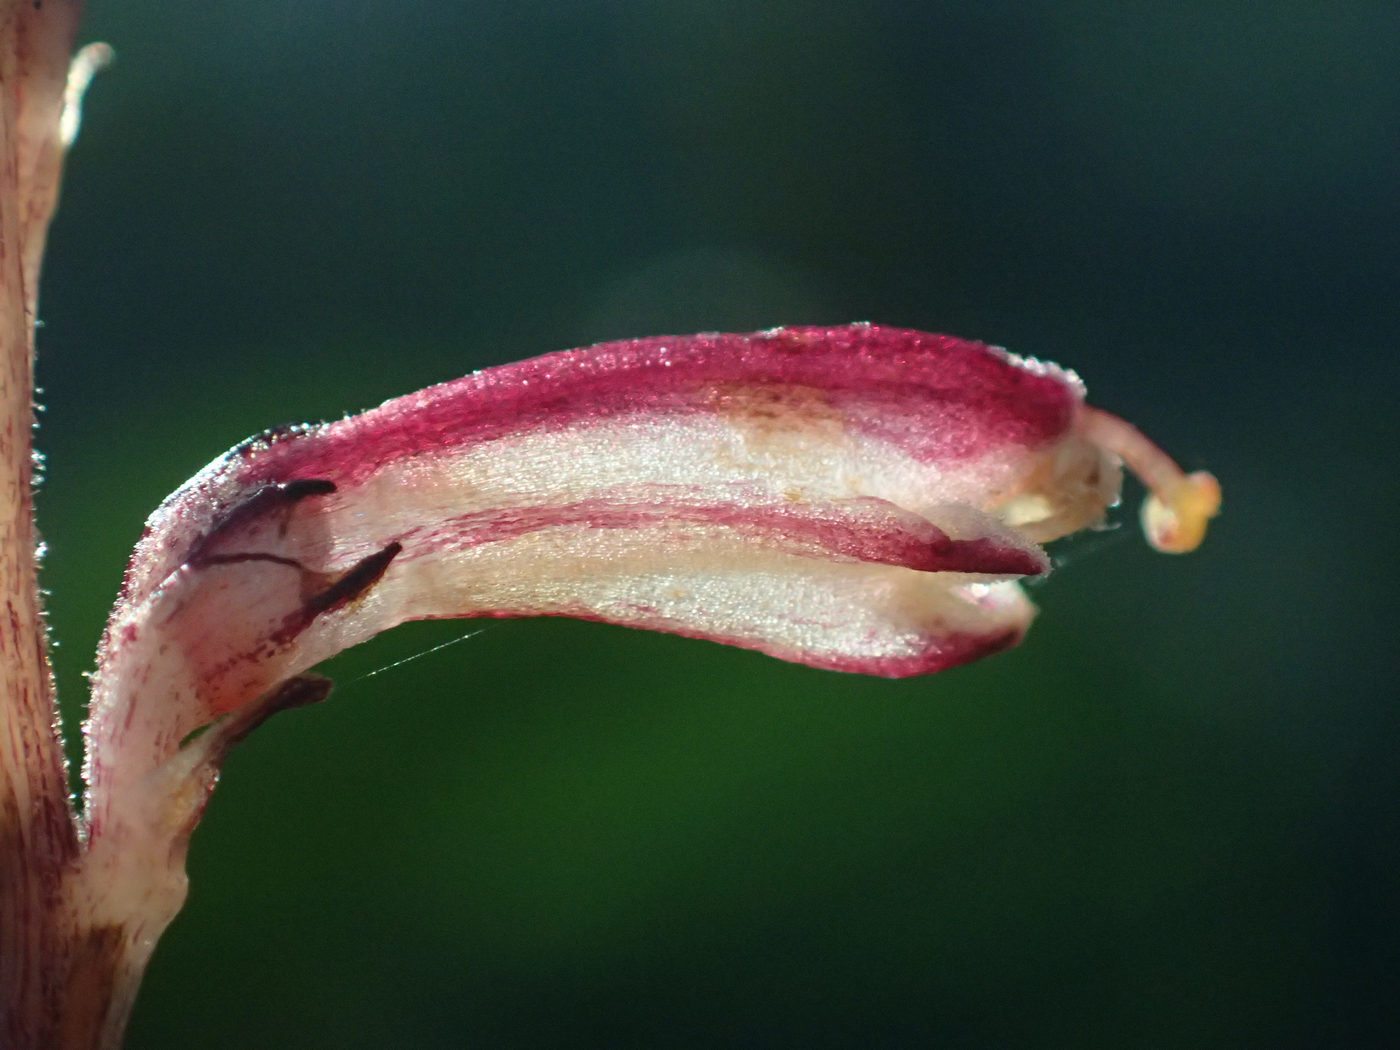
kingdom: Plantae
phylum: Tracheophyta
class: Magnoliopsida
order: Lamiales
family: Orobanchaceae
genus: Epifagus
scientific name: Epifagus virginiana
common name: Beechdrops
